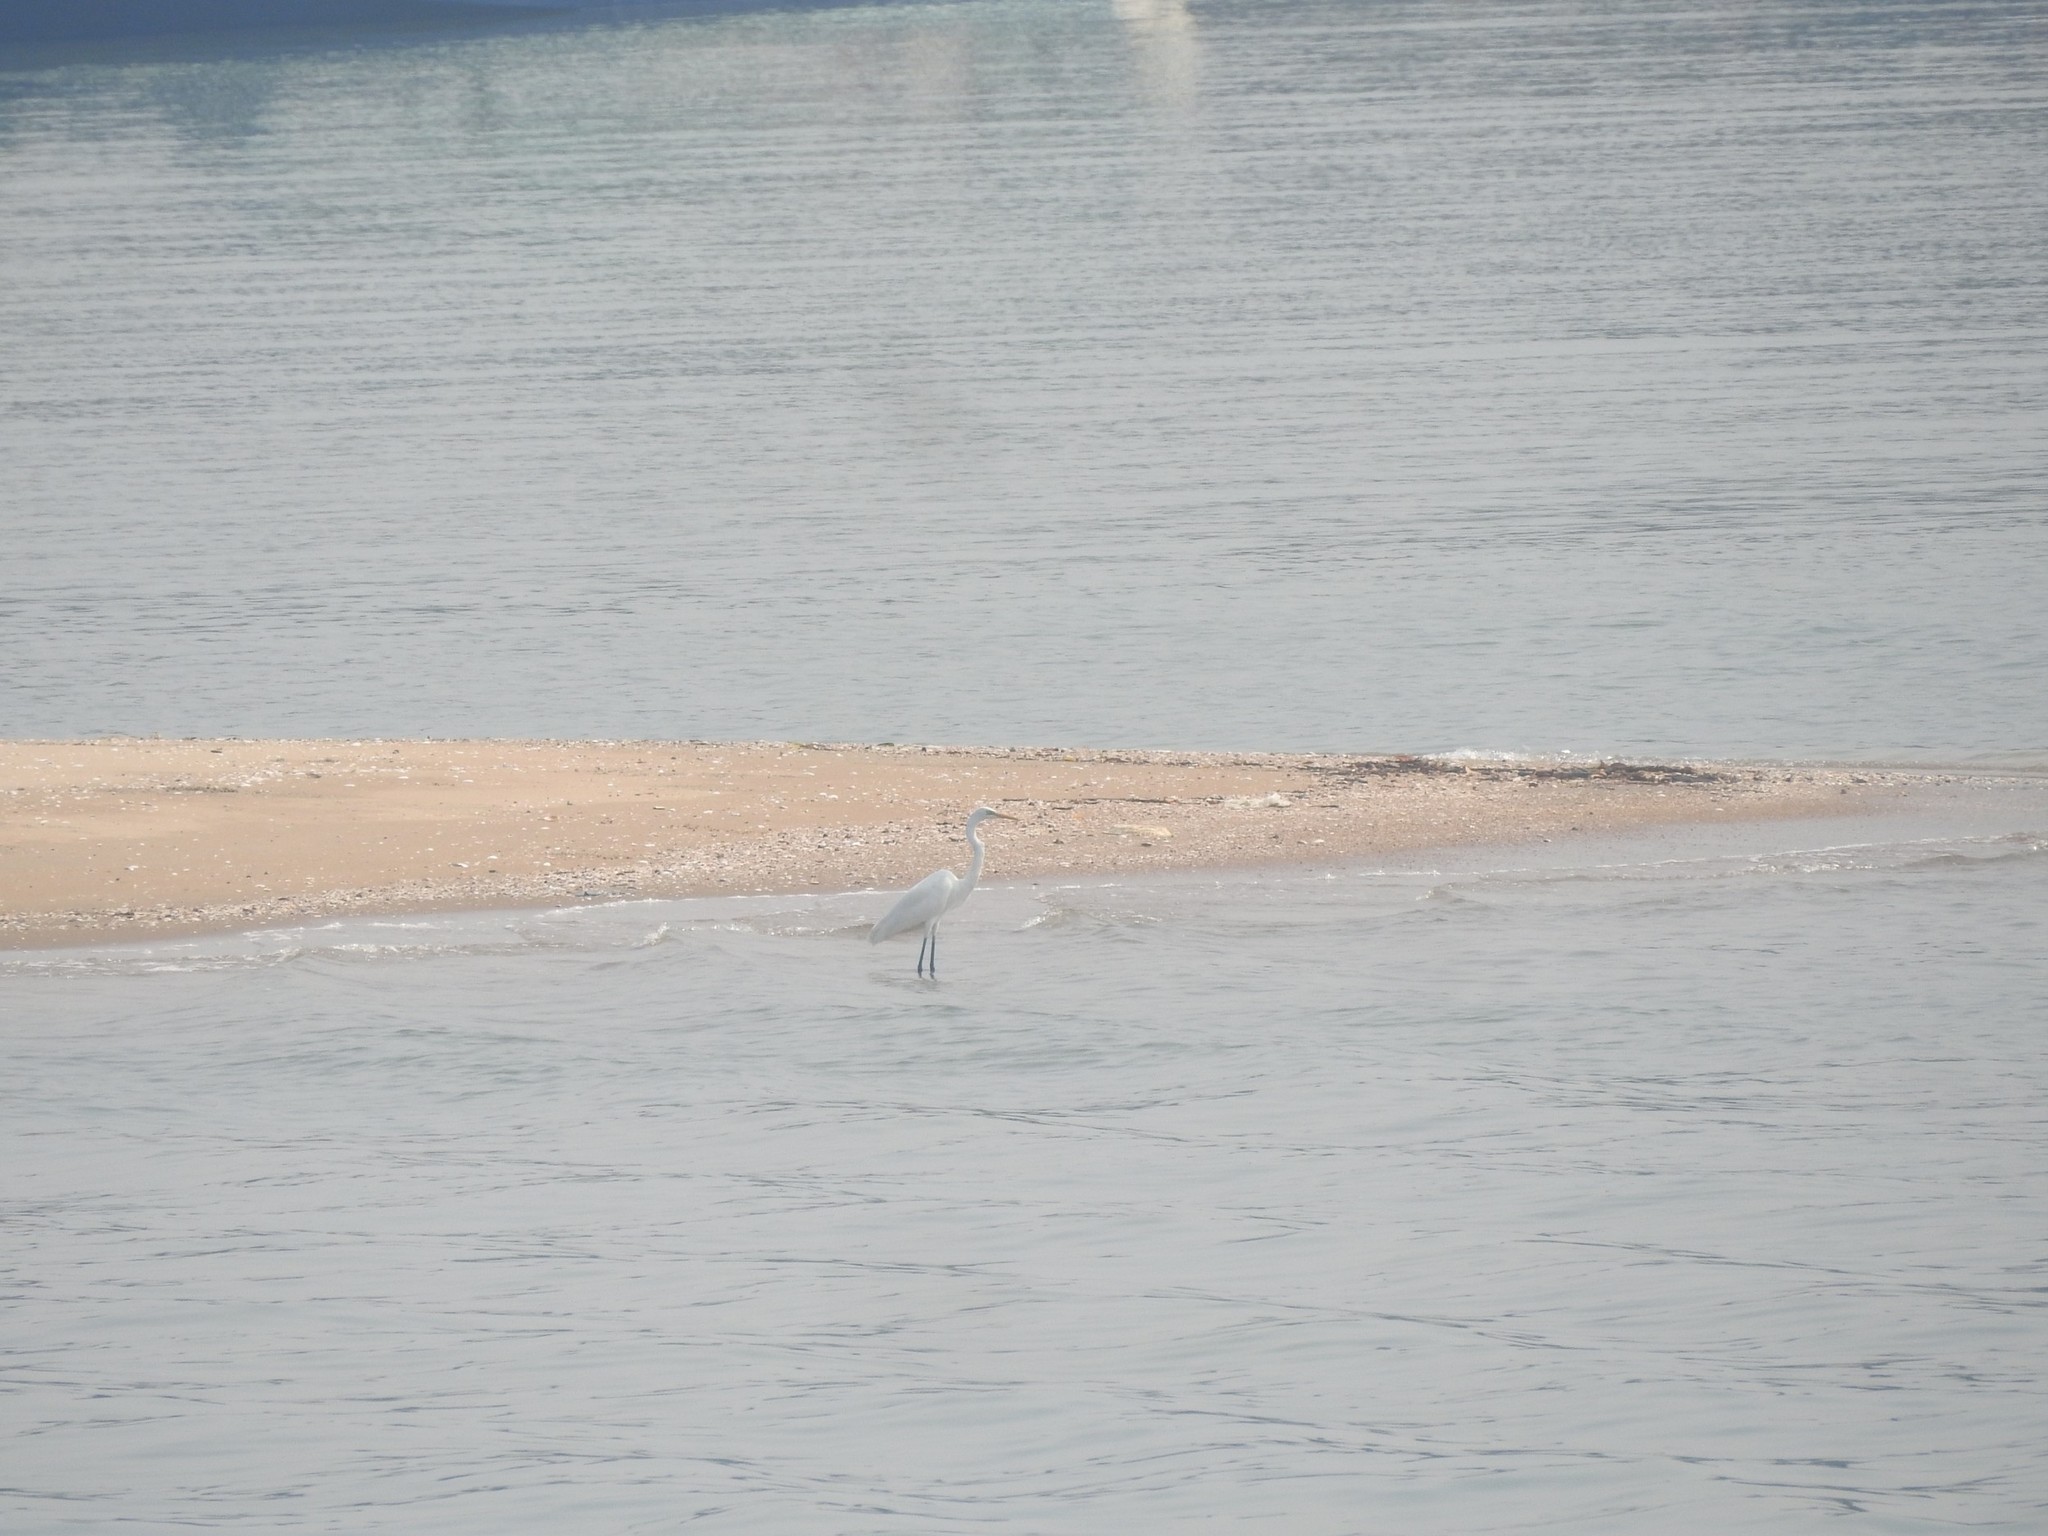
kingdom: Animalia
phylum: Chordata
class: Aves
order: Pelecaniformes
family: Ardeidae
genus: Ardea
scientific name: Ardea alba
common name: Great egret
